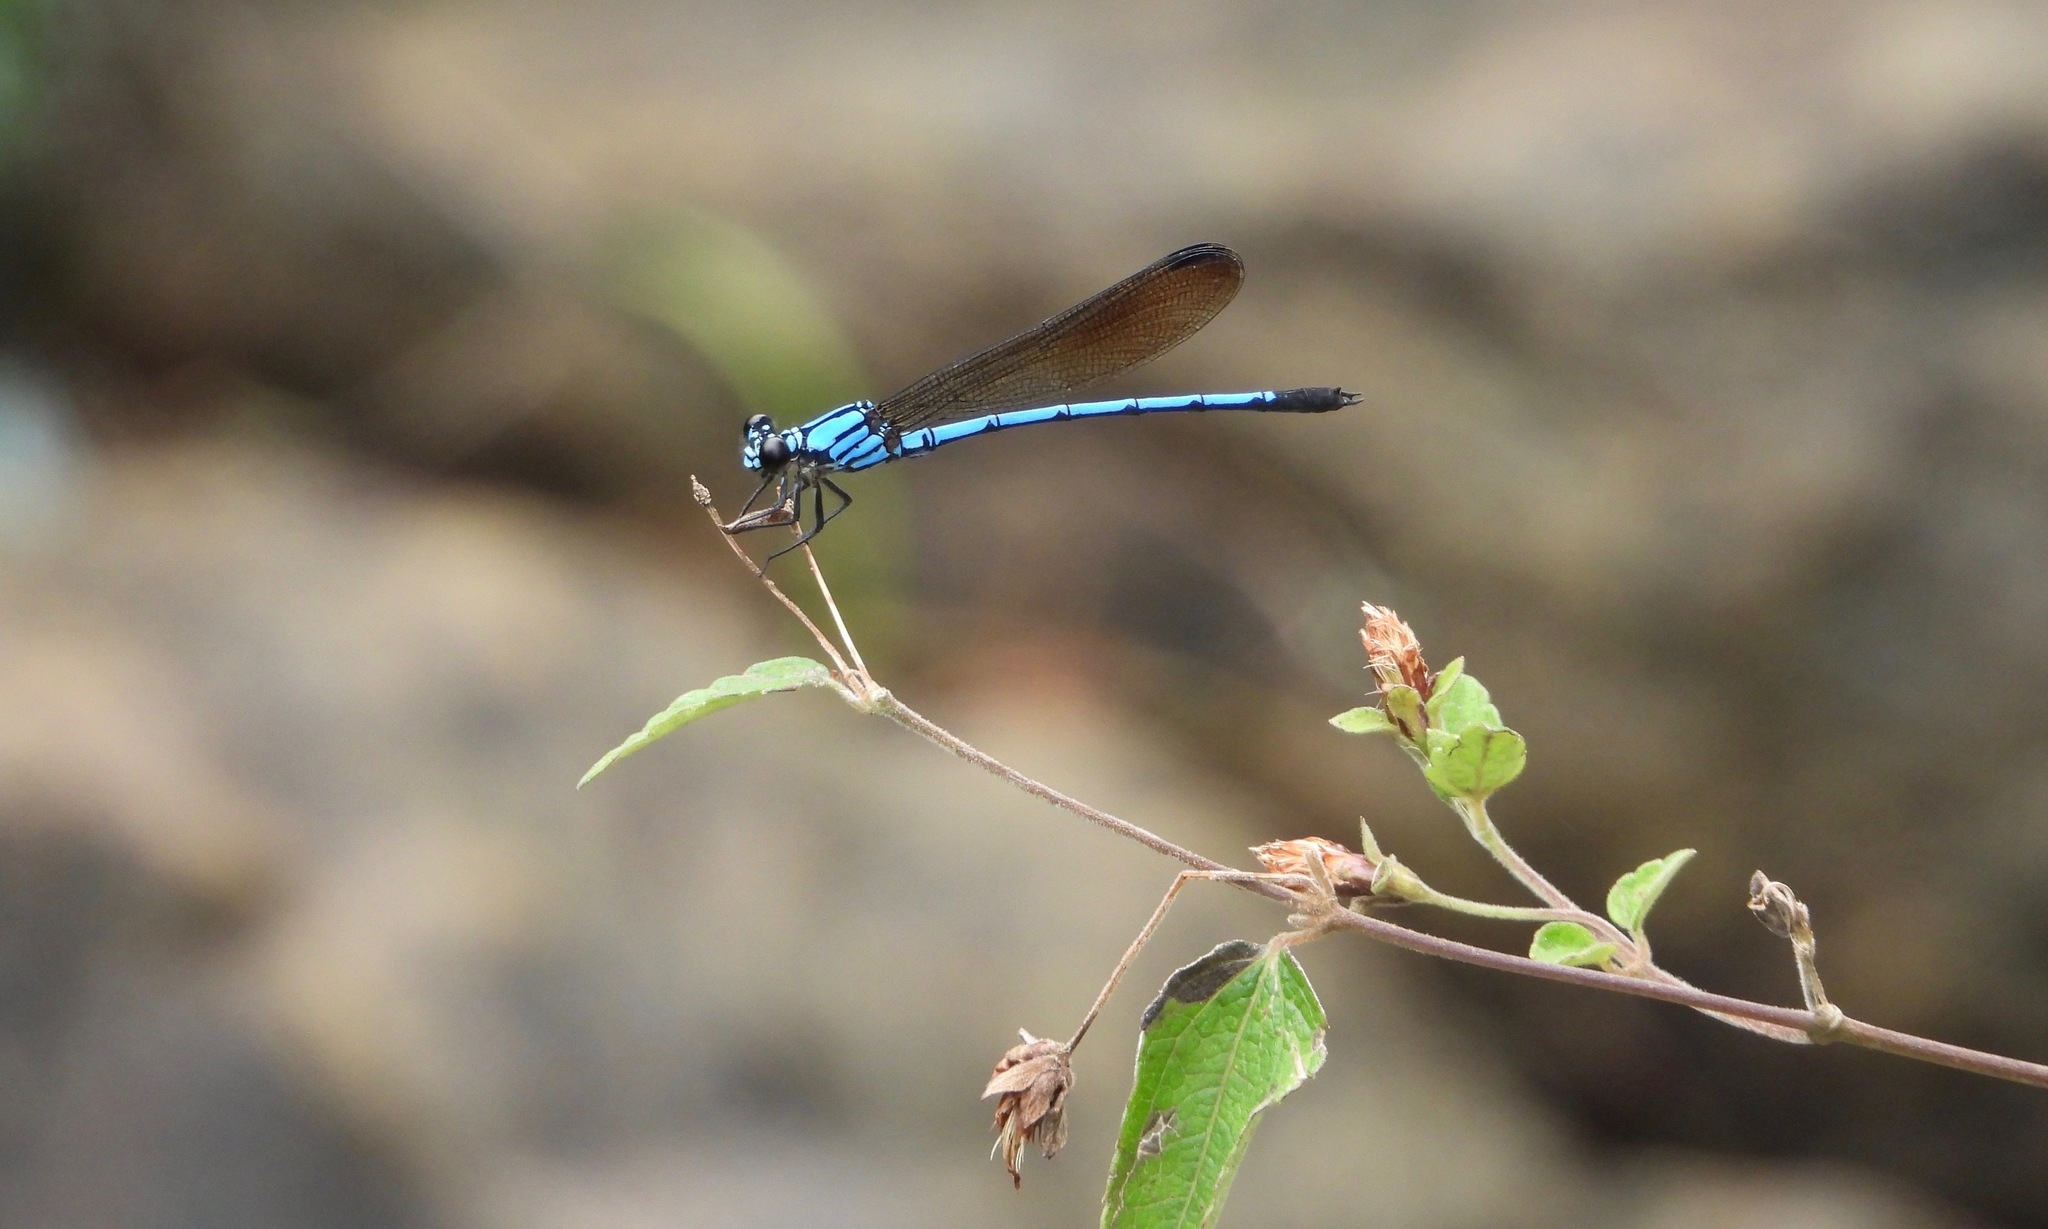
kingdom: Animalia
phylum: Arthropoda
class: Insecta
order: Odonata
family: Polythoridae
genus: Cora
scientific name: Cora marina
